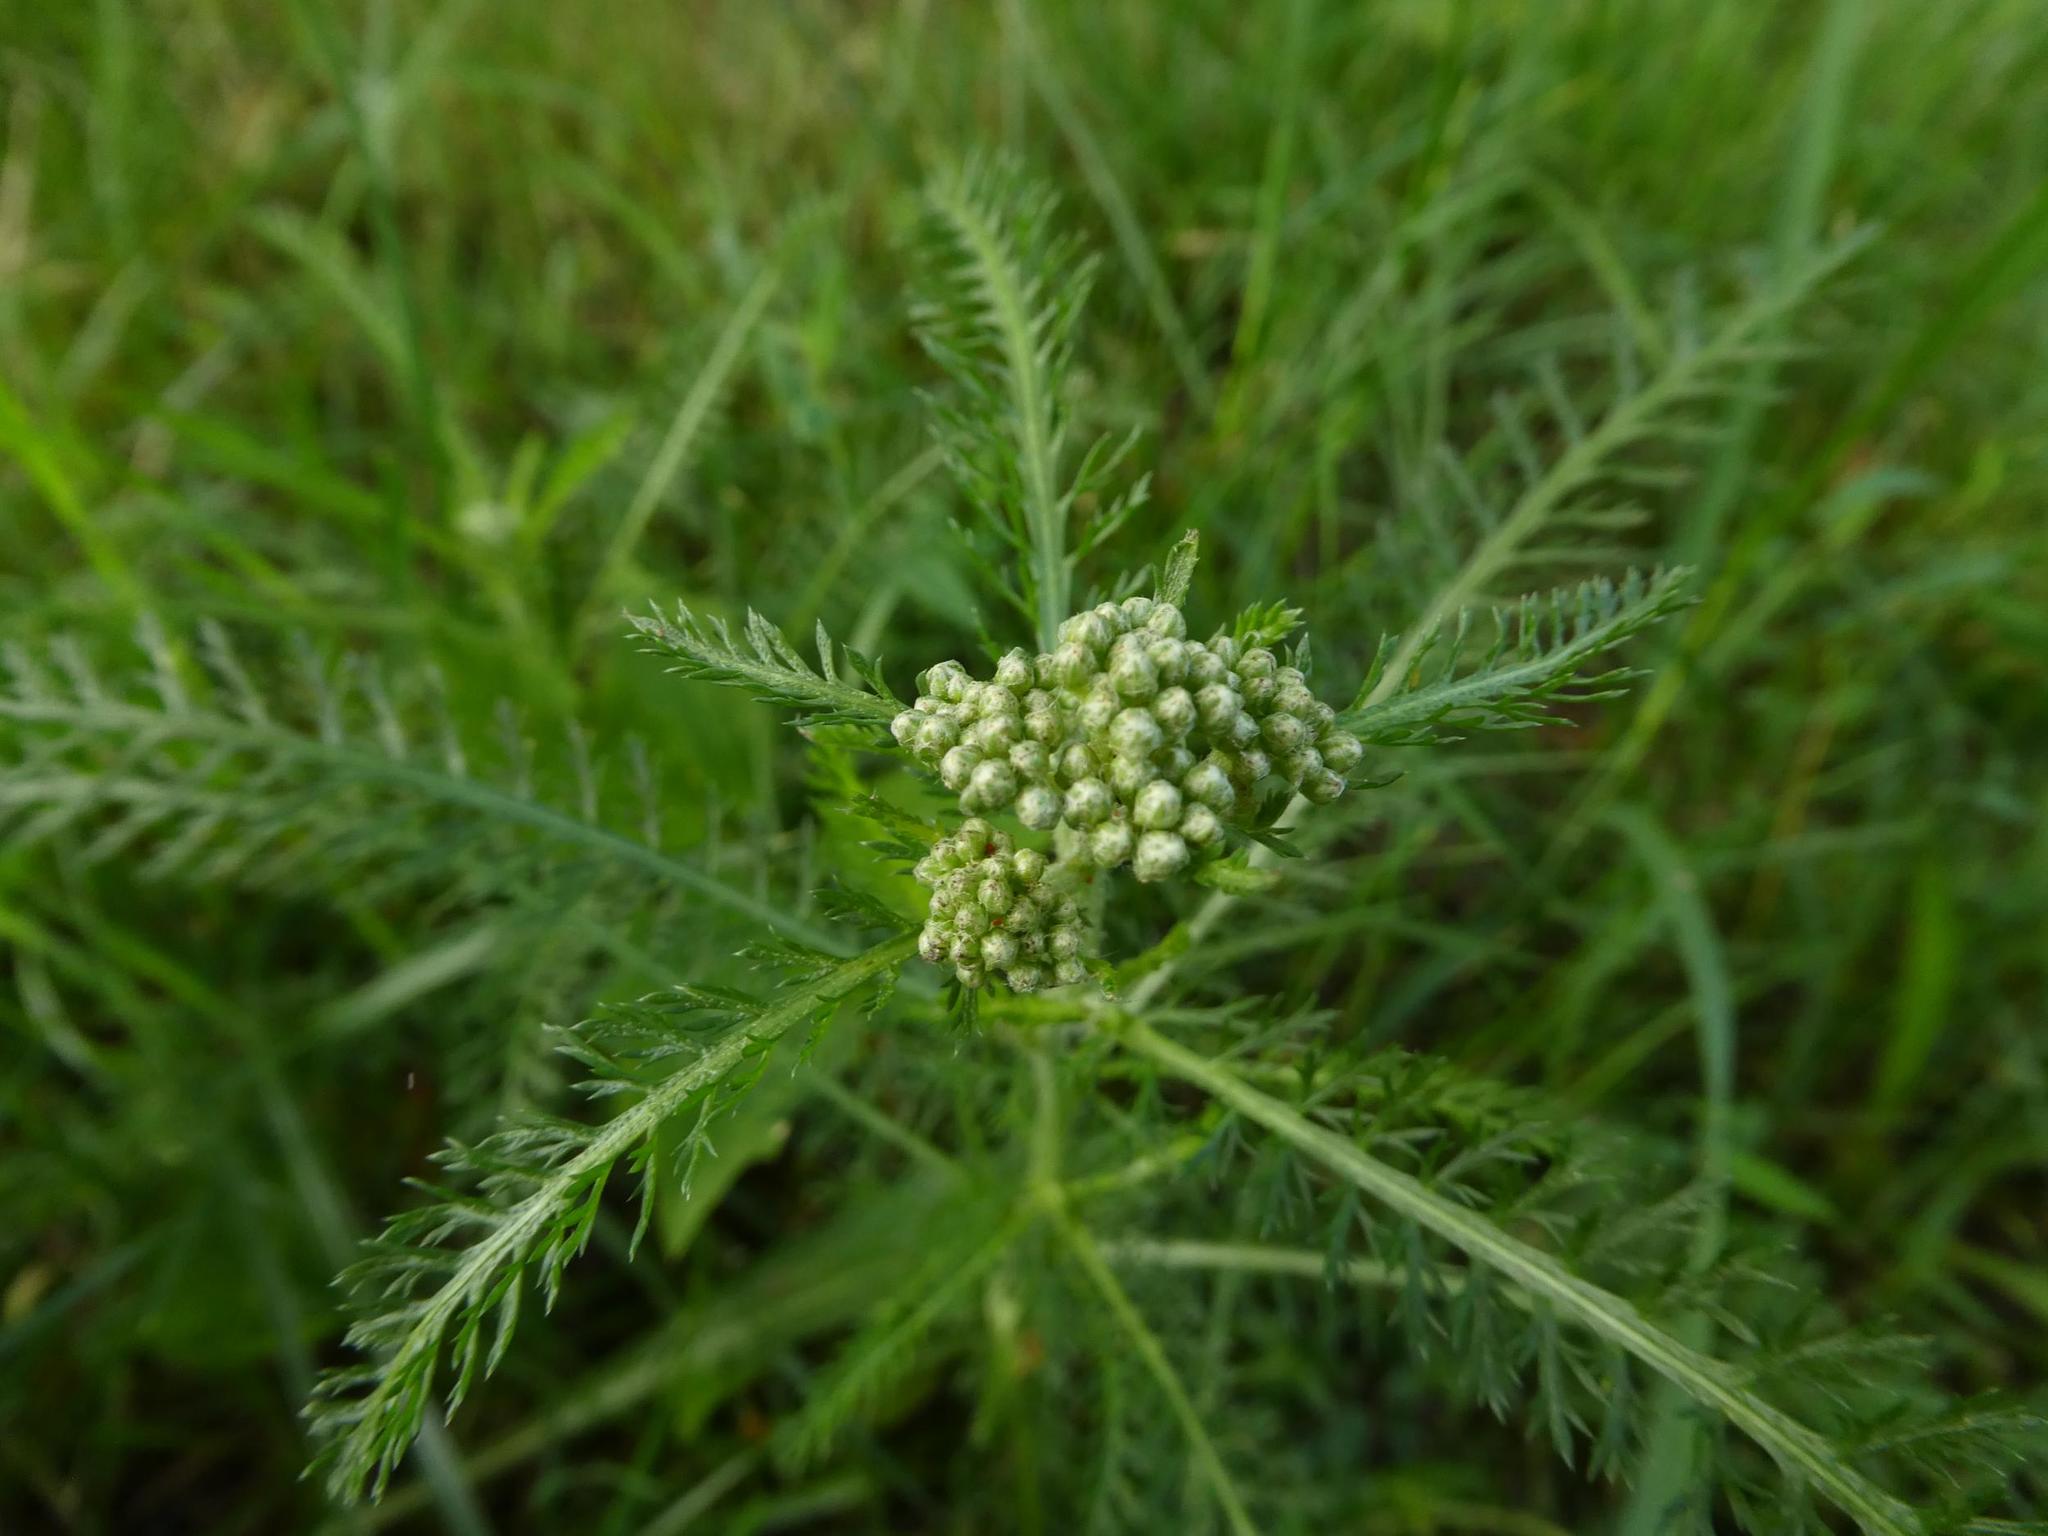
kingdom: Plantae
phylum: Tracheophyta
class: Magnoliopsida
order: Asterales
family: Asteraceae
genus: Achillea
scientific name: Achillea millefolium
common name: Yarrow
